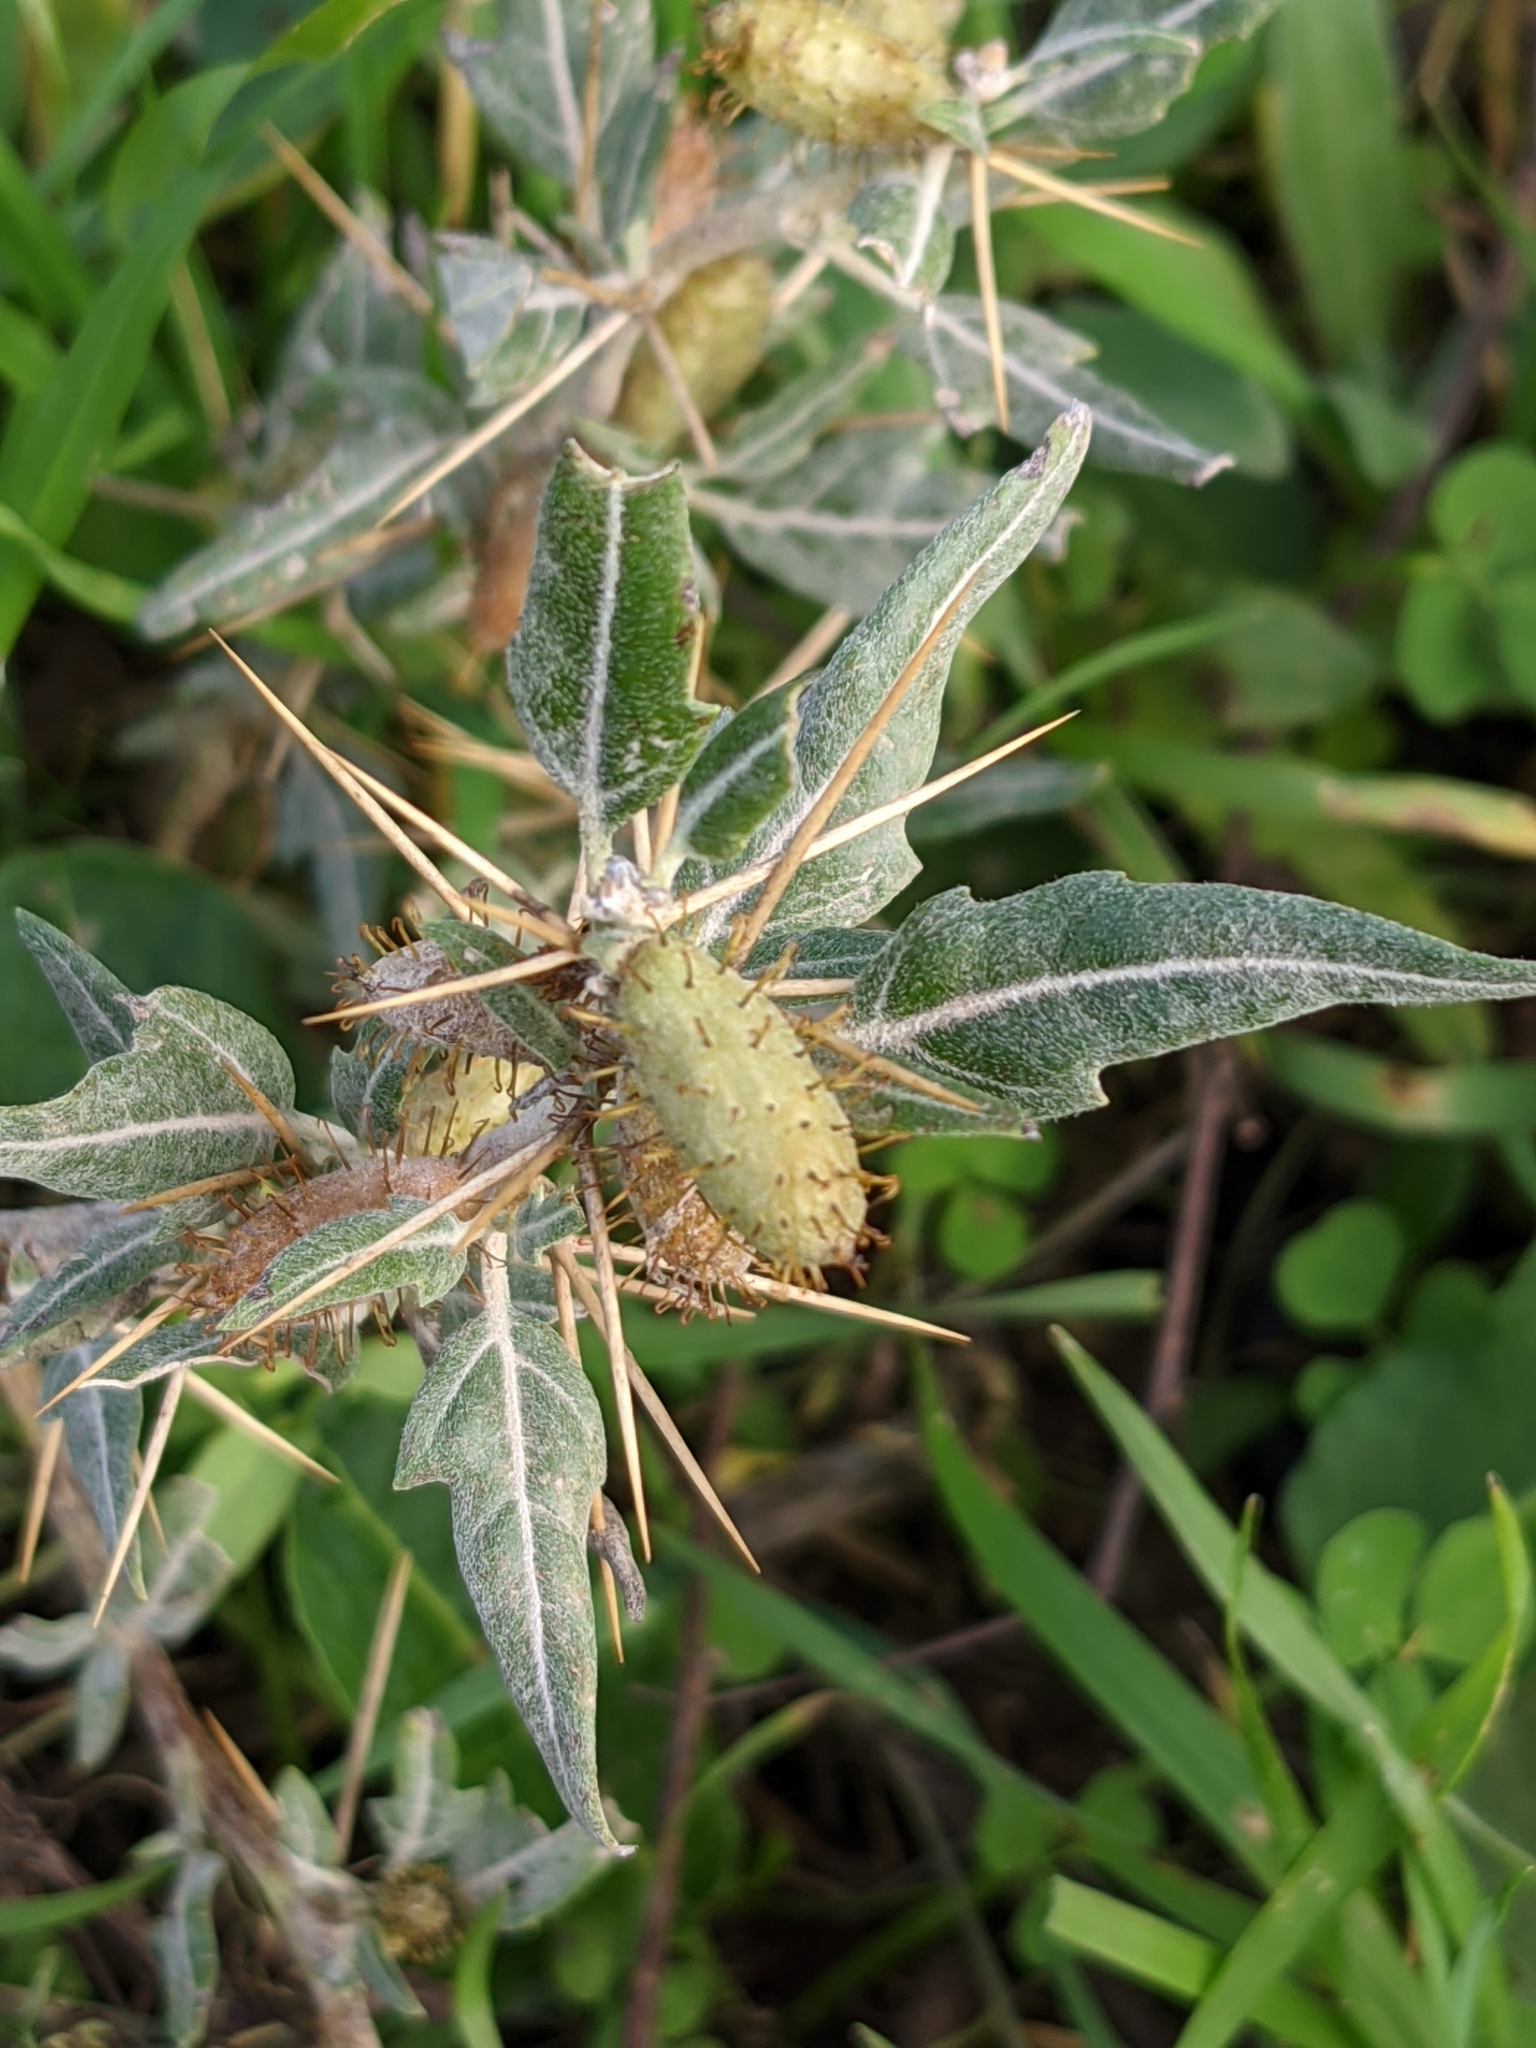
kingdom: Plantae
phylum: Tracheophyta
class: Magnoliopsida
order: Asterales
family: Asteraceae
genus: Xanthium
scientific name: Xanthium spinosum
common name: Spiny cocklebur
